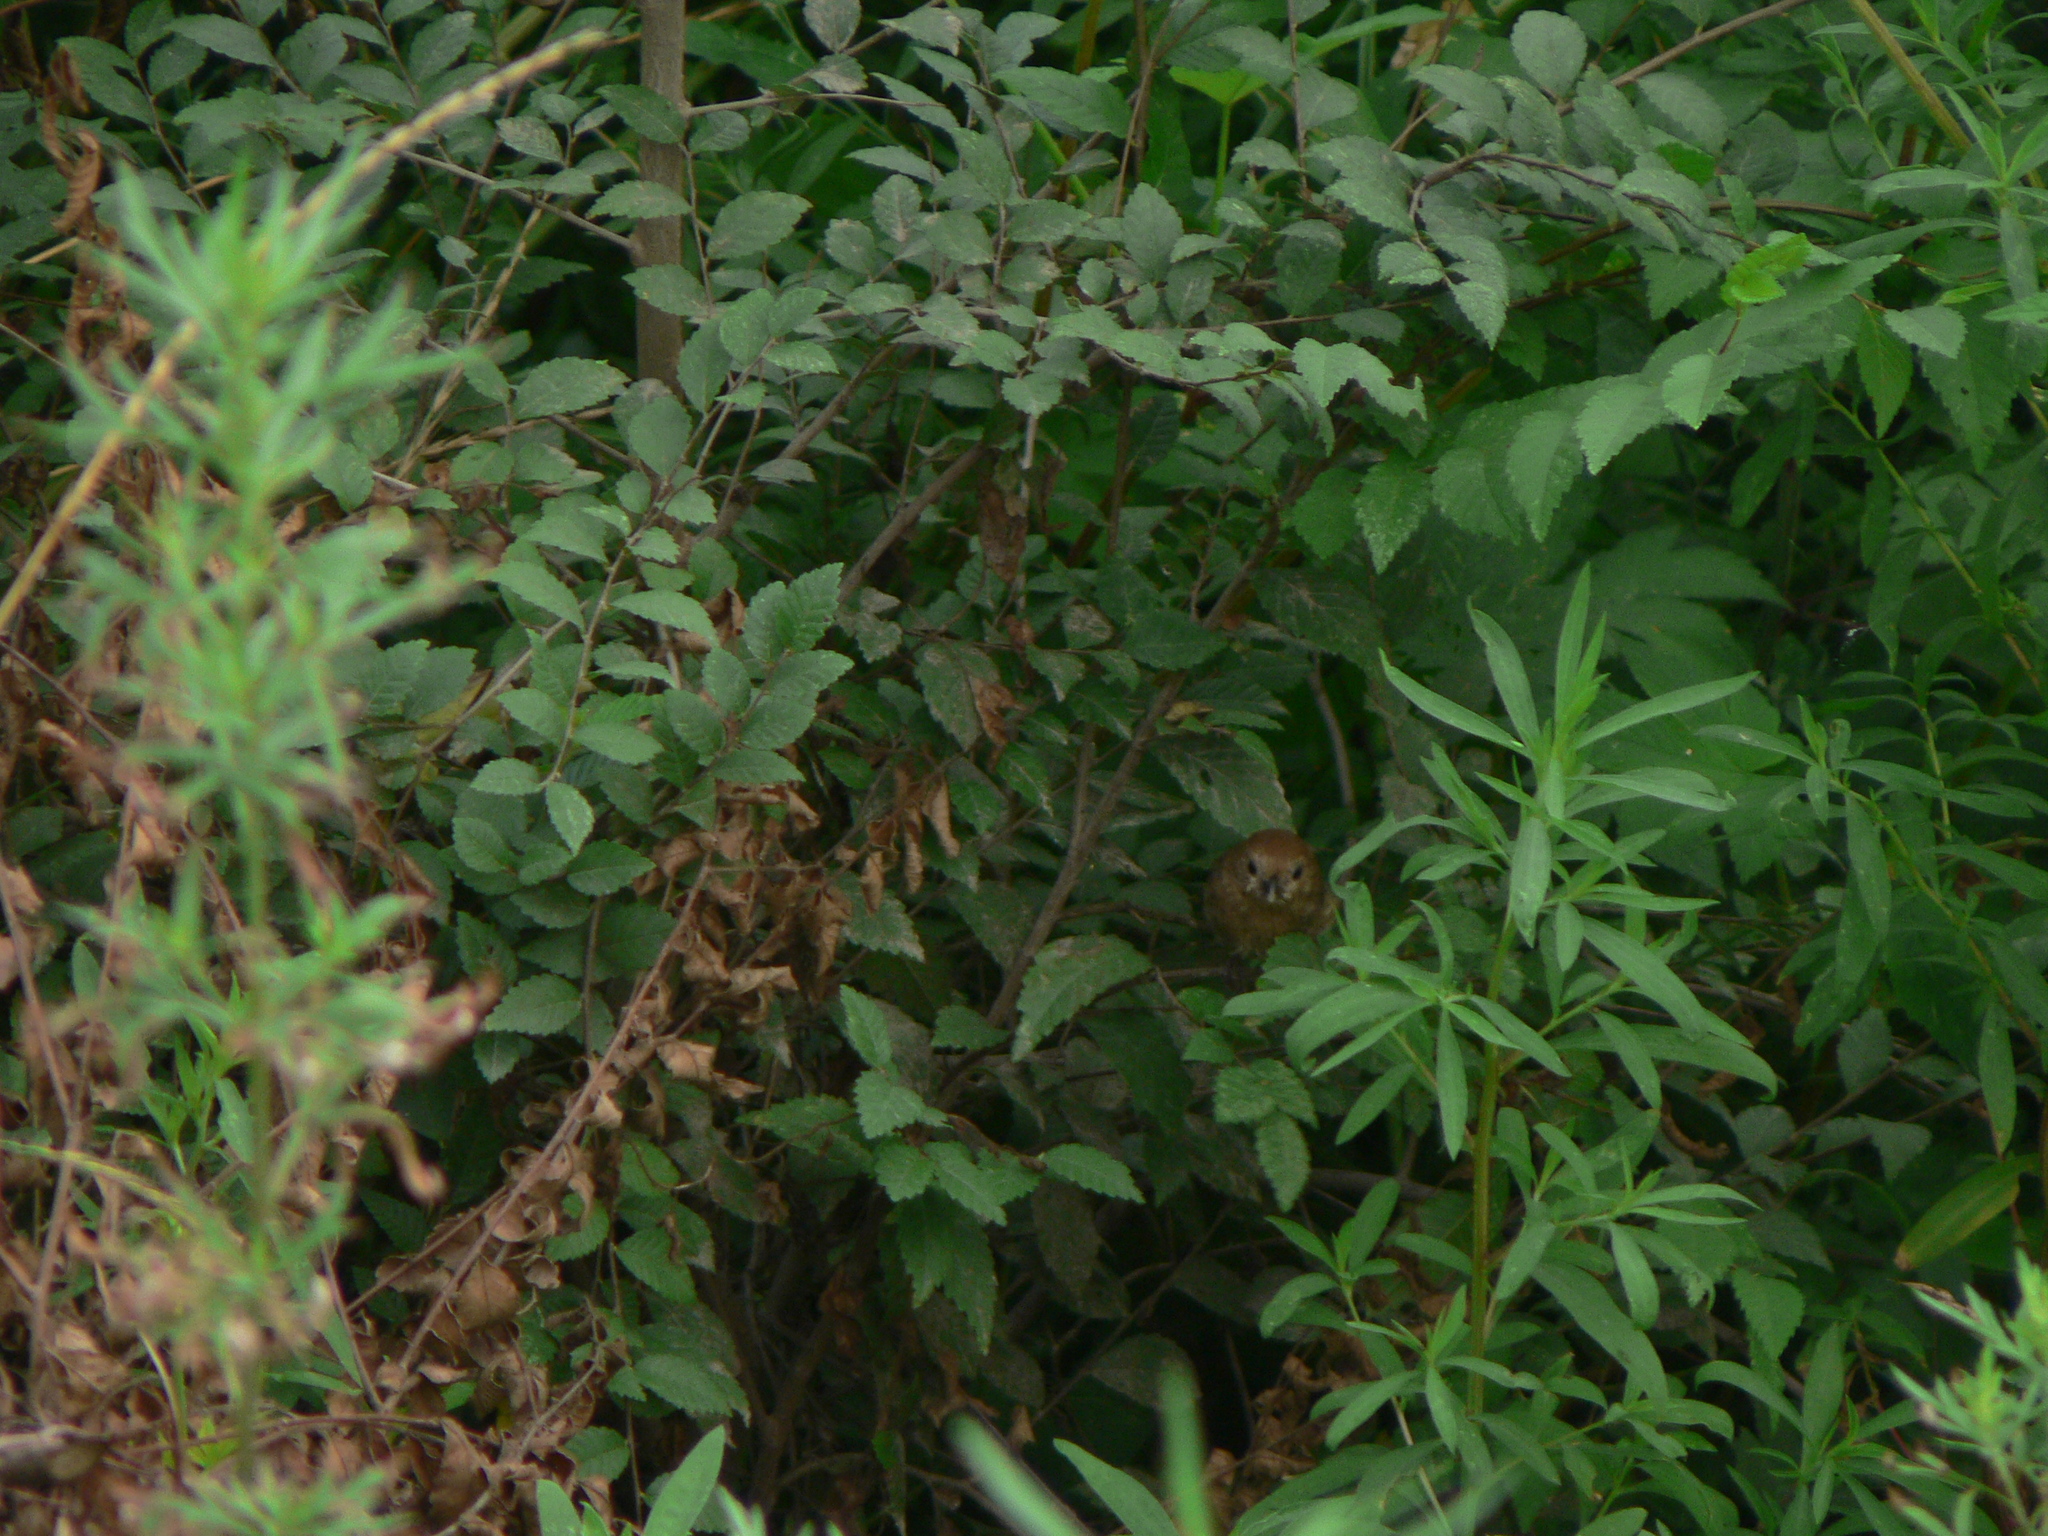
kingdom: Animalia
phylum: Chordata
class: Aves
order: Passeriformes
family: Sylviidae
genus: Sinosuthora
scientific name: Sinosuthora webbiana
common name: Vinous-throated parrotbill
